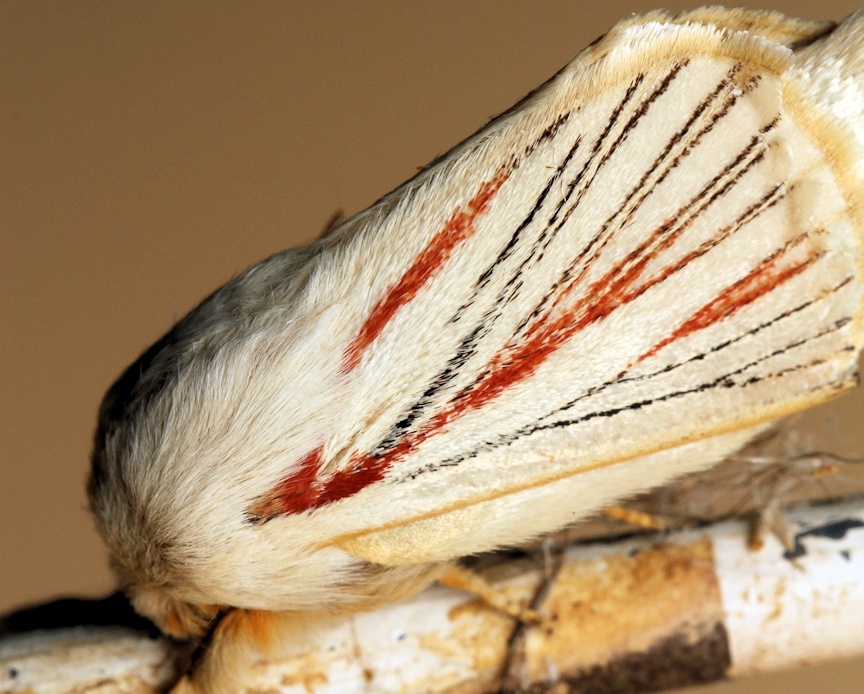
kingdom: Animalia
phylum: Arthropoda
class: Insecta
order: Lepidoptera
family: Lasiocampidae
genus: Grammodora
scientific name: Grammodora nigrolineata
